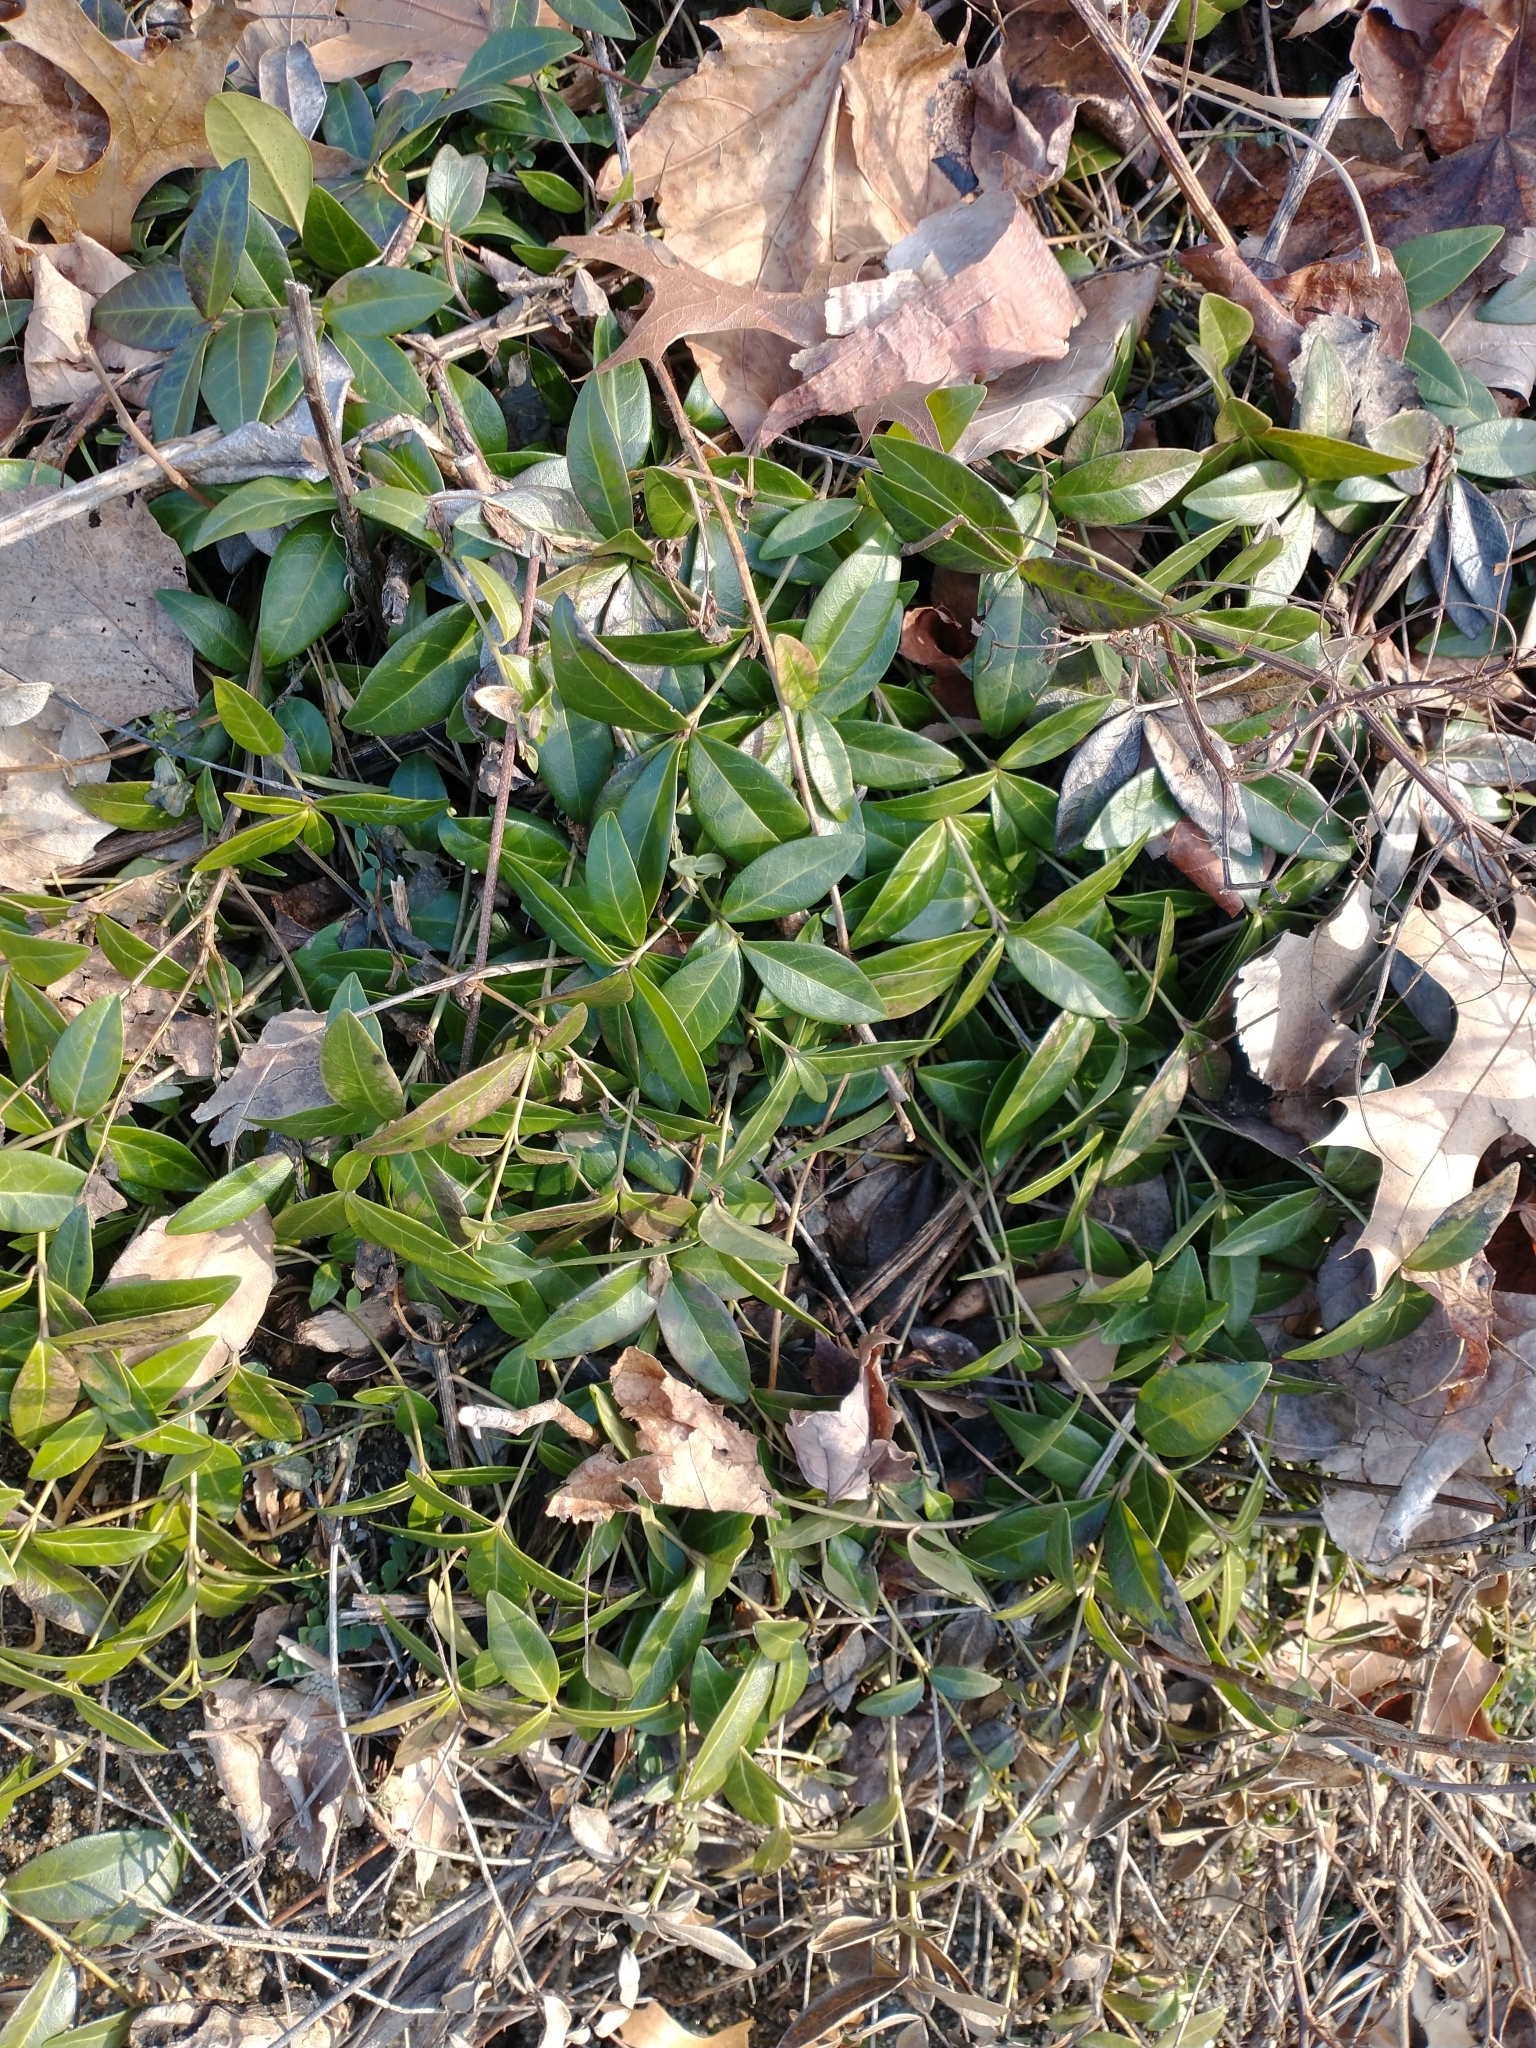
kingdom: Plantae
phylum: Tracheophyta
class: Magnoliopsida
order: Gentianales
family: Apocynaceae
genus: Vinca
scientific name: Vinca minor
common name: Lesser periwinkle
